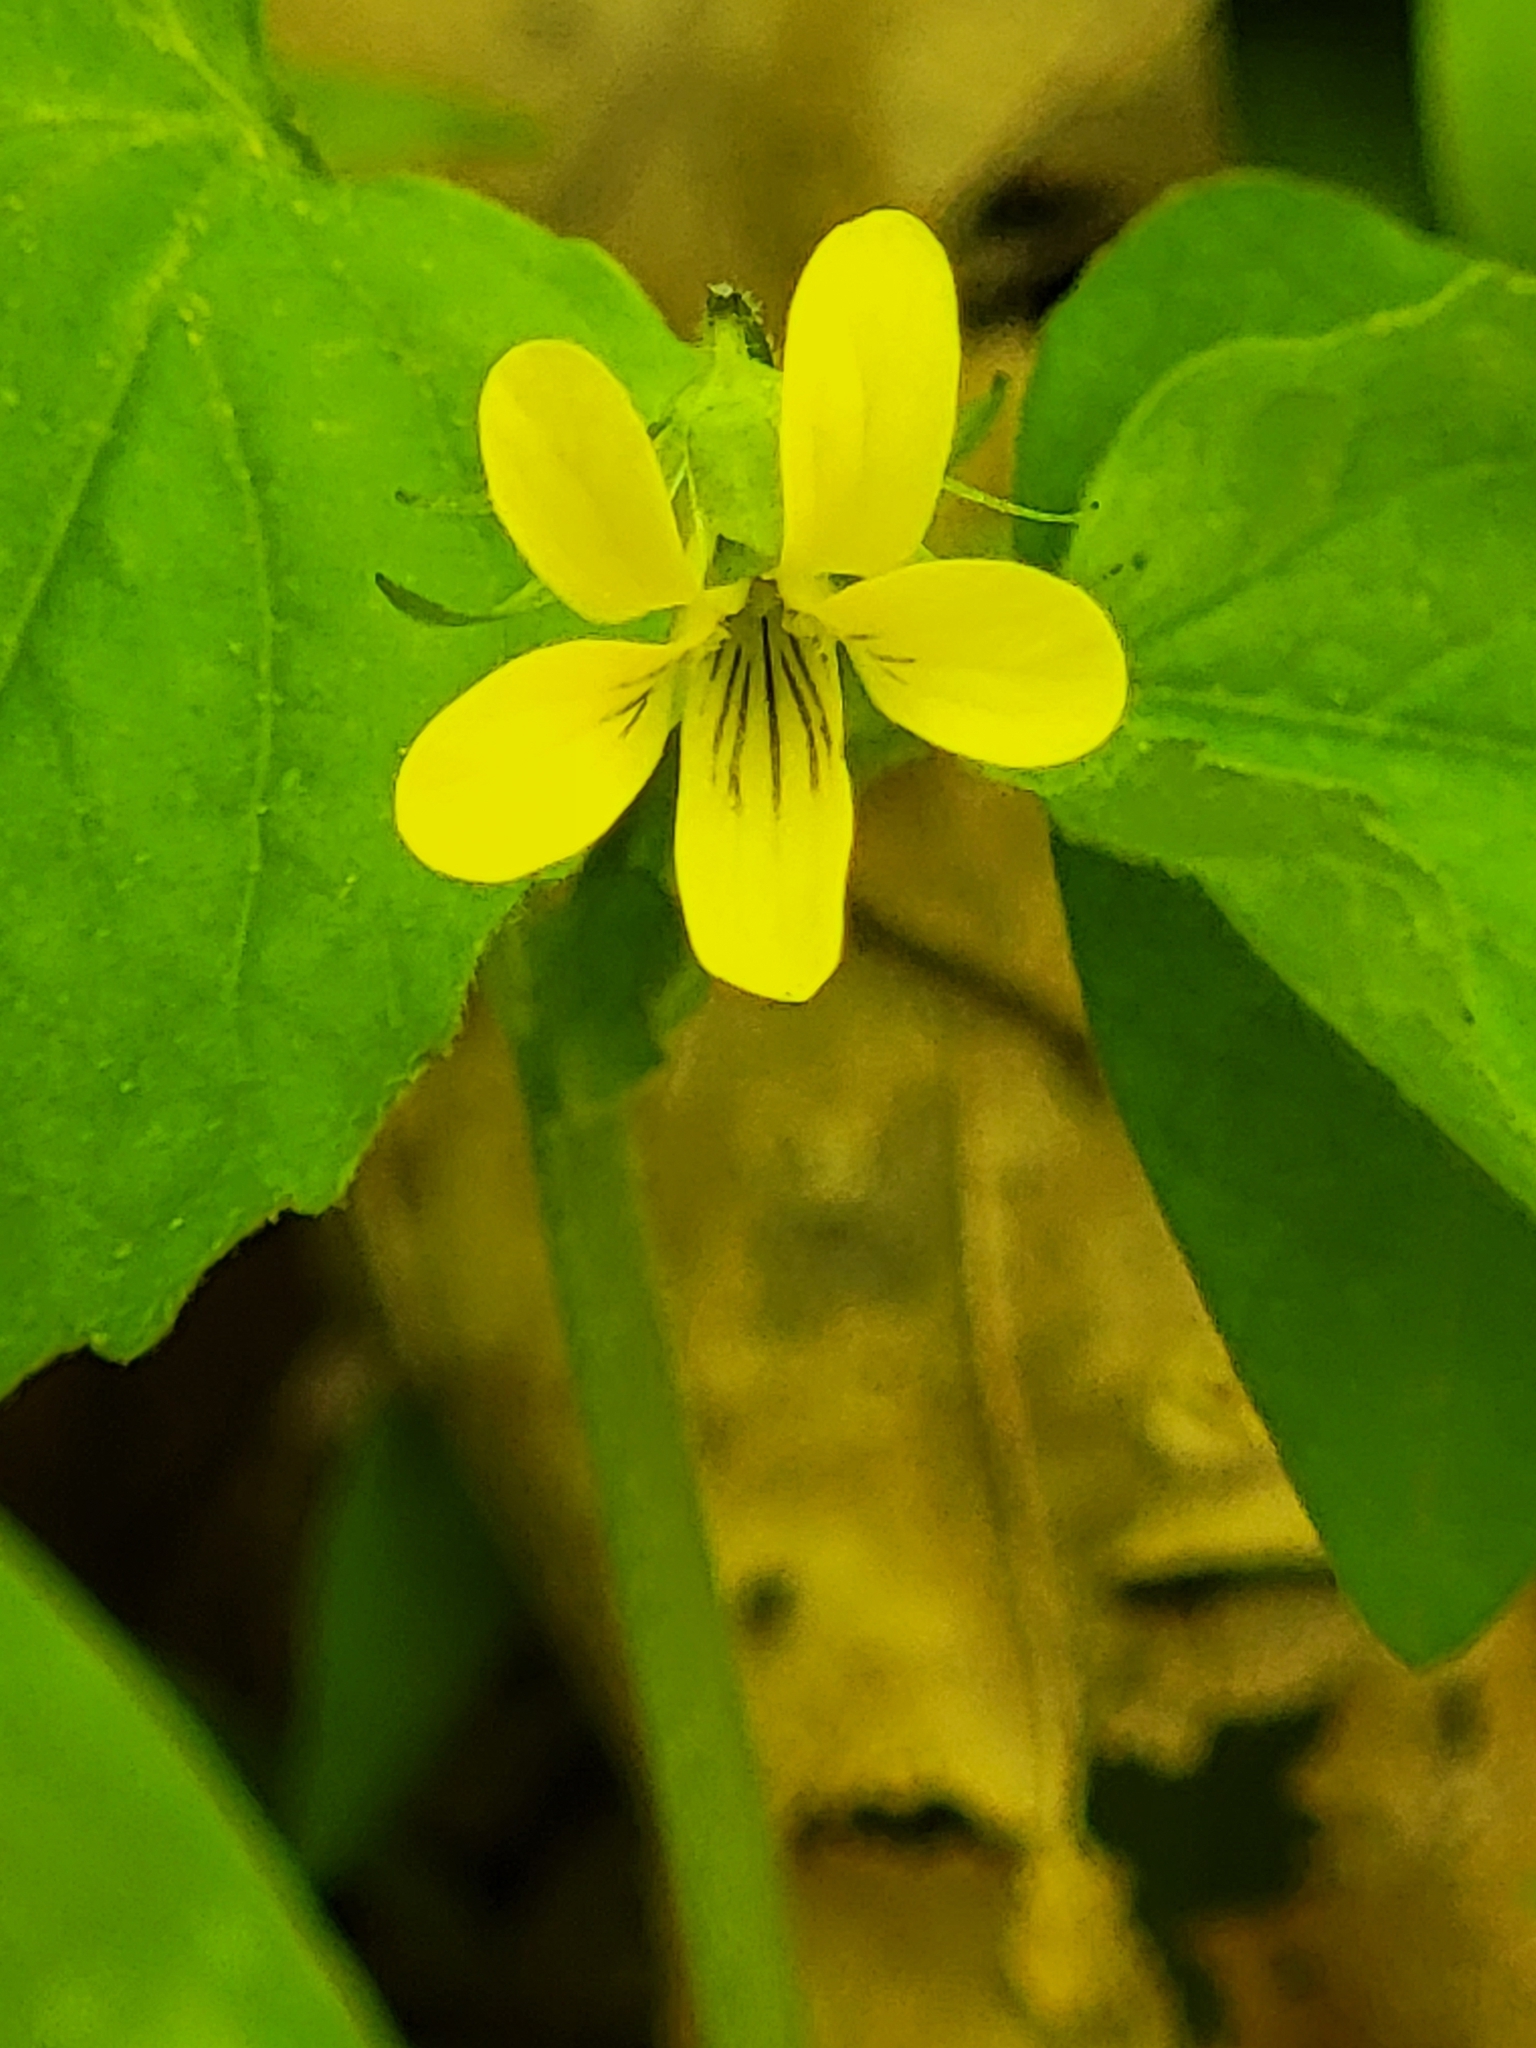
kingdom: Plantae
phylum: Tracheophyta
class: Magnoliopsida
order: Malpighiales
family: Violaceae
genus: Viola
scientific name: Viola eriocarpa
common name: Smooth yellow violet
